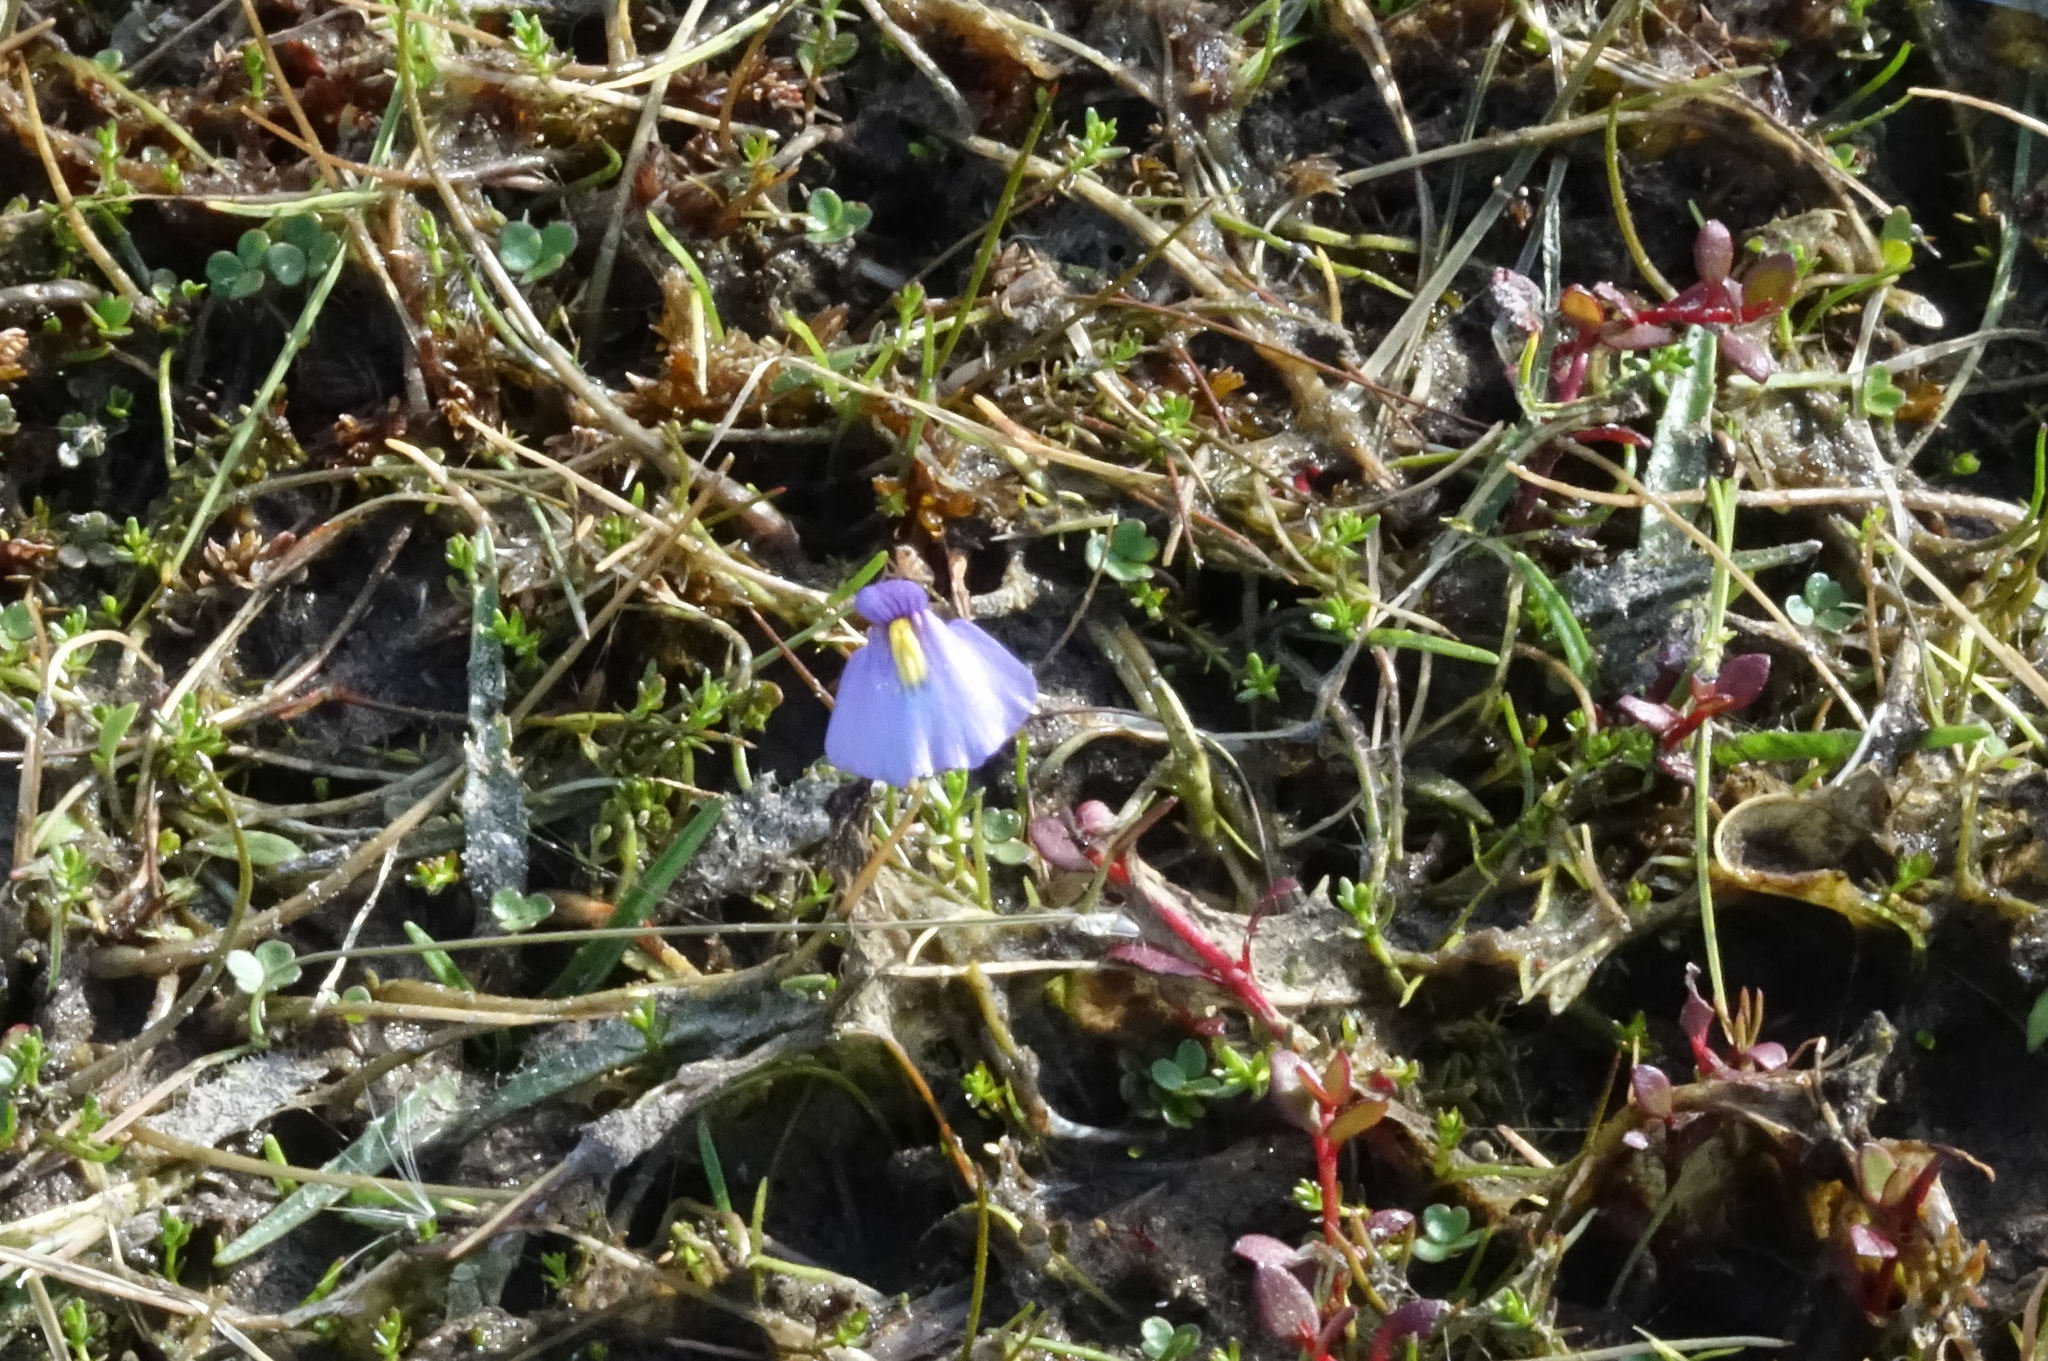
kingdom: Plantae
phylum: Tracheophyta
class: Magnoliopsida
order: Lamiales
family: Lentibulariaceae
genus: Utricularia
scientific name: Utricularia dichotoma
